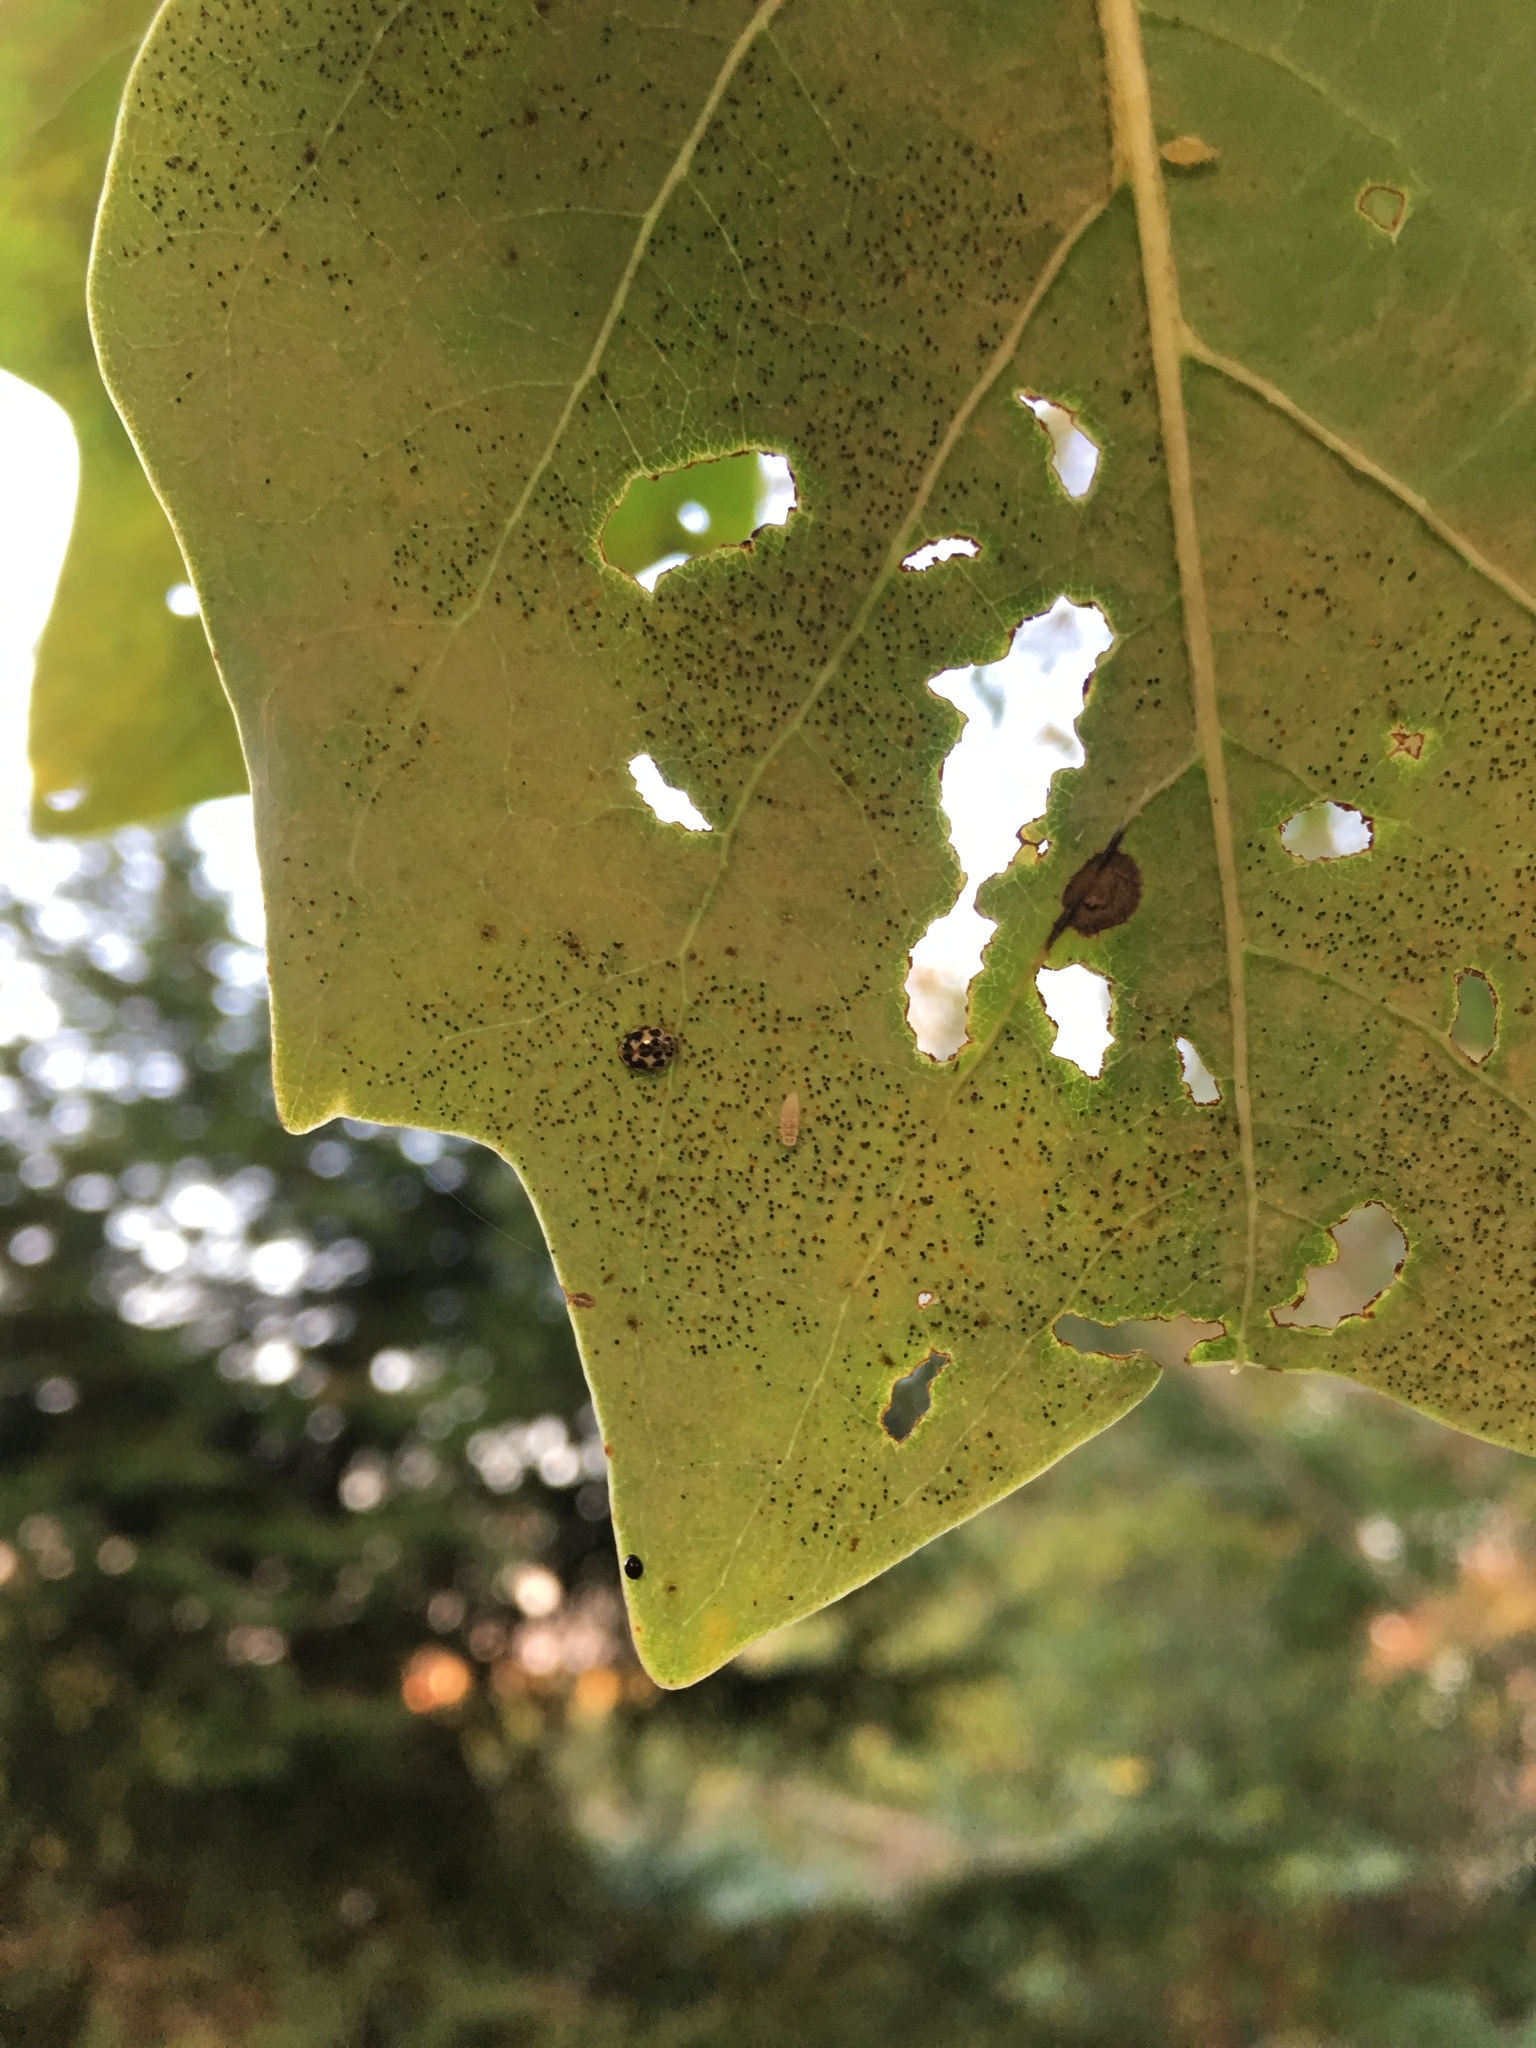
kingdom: Animalia
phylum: Arthropoda
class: Insecta
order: Coleoptera
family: Coccinellidae
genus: Psyllobora
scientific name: Psyllobora vigintimaculata
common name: Ladybird beetle
